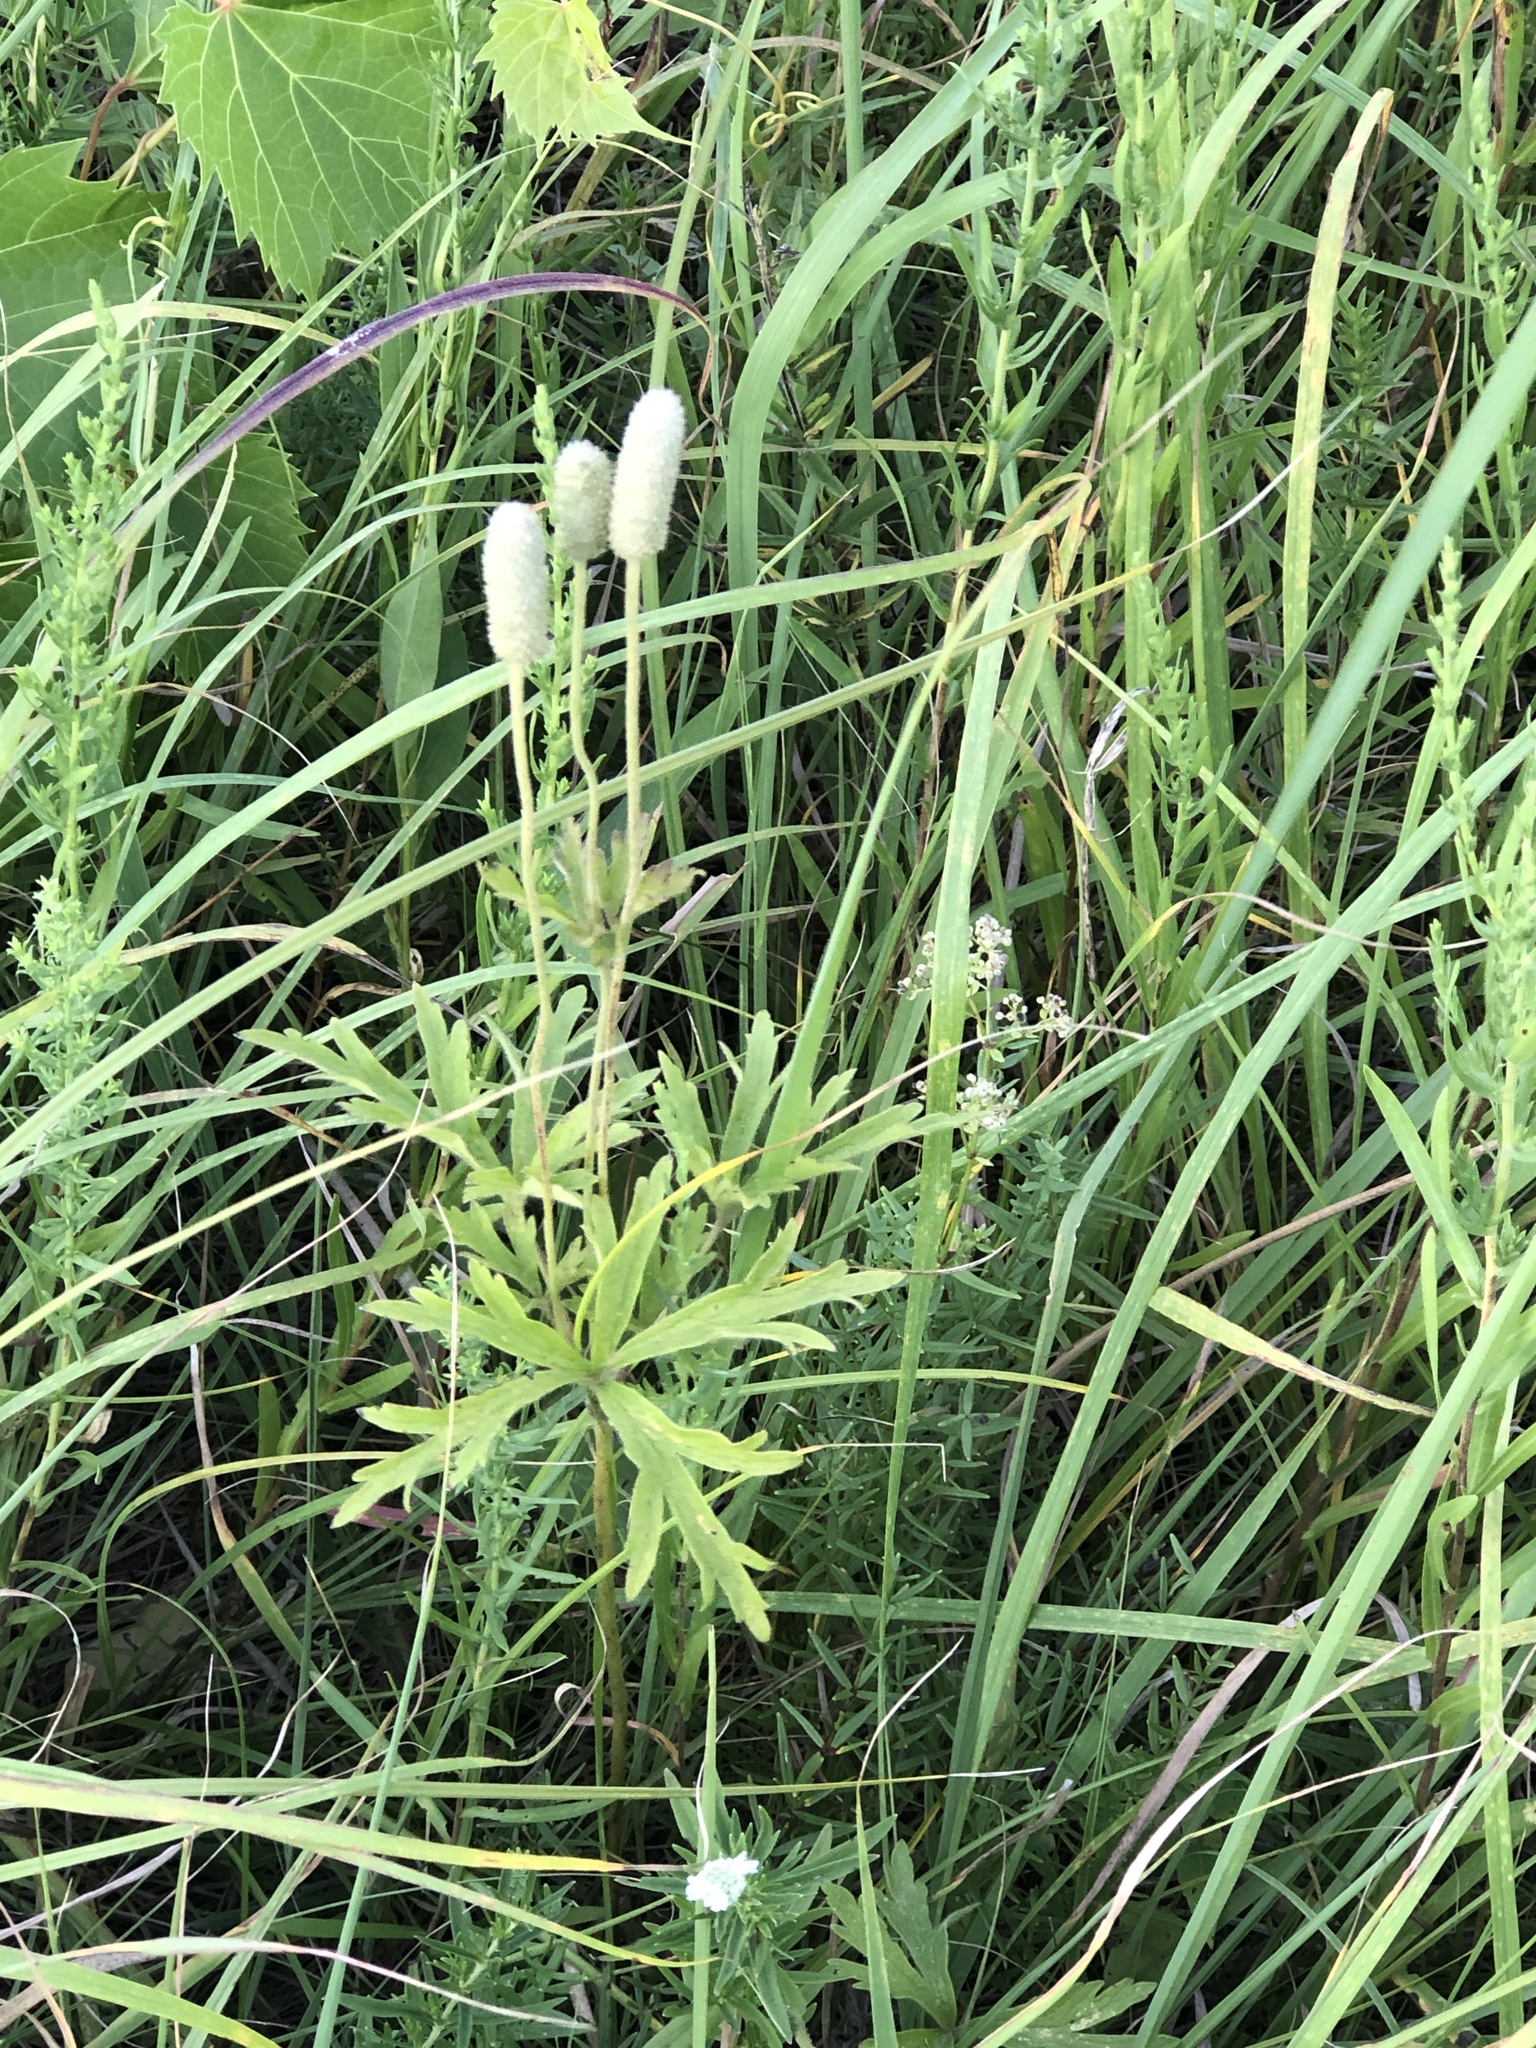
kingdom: Plantae
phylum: Tracheophyta
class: Magnoliopsida
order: Ranunculales
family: Ranunculaceae
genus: Anemone
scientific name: Anemone cylindrica
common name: Candle anemone
